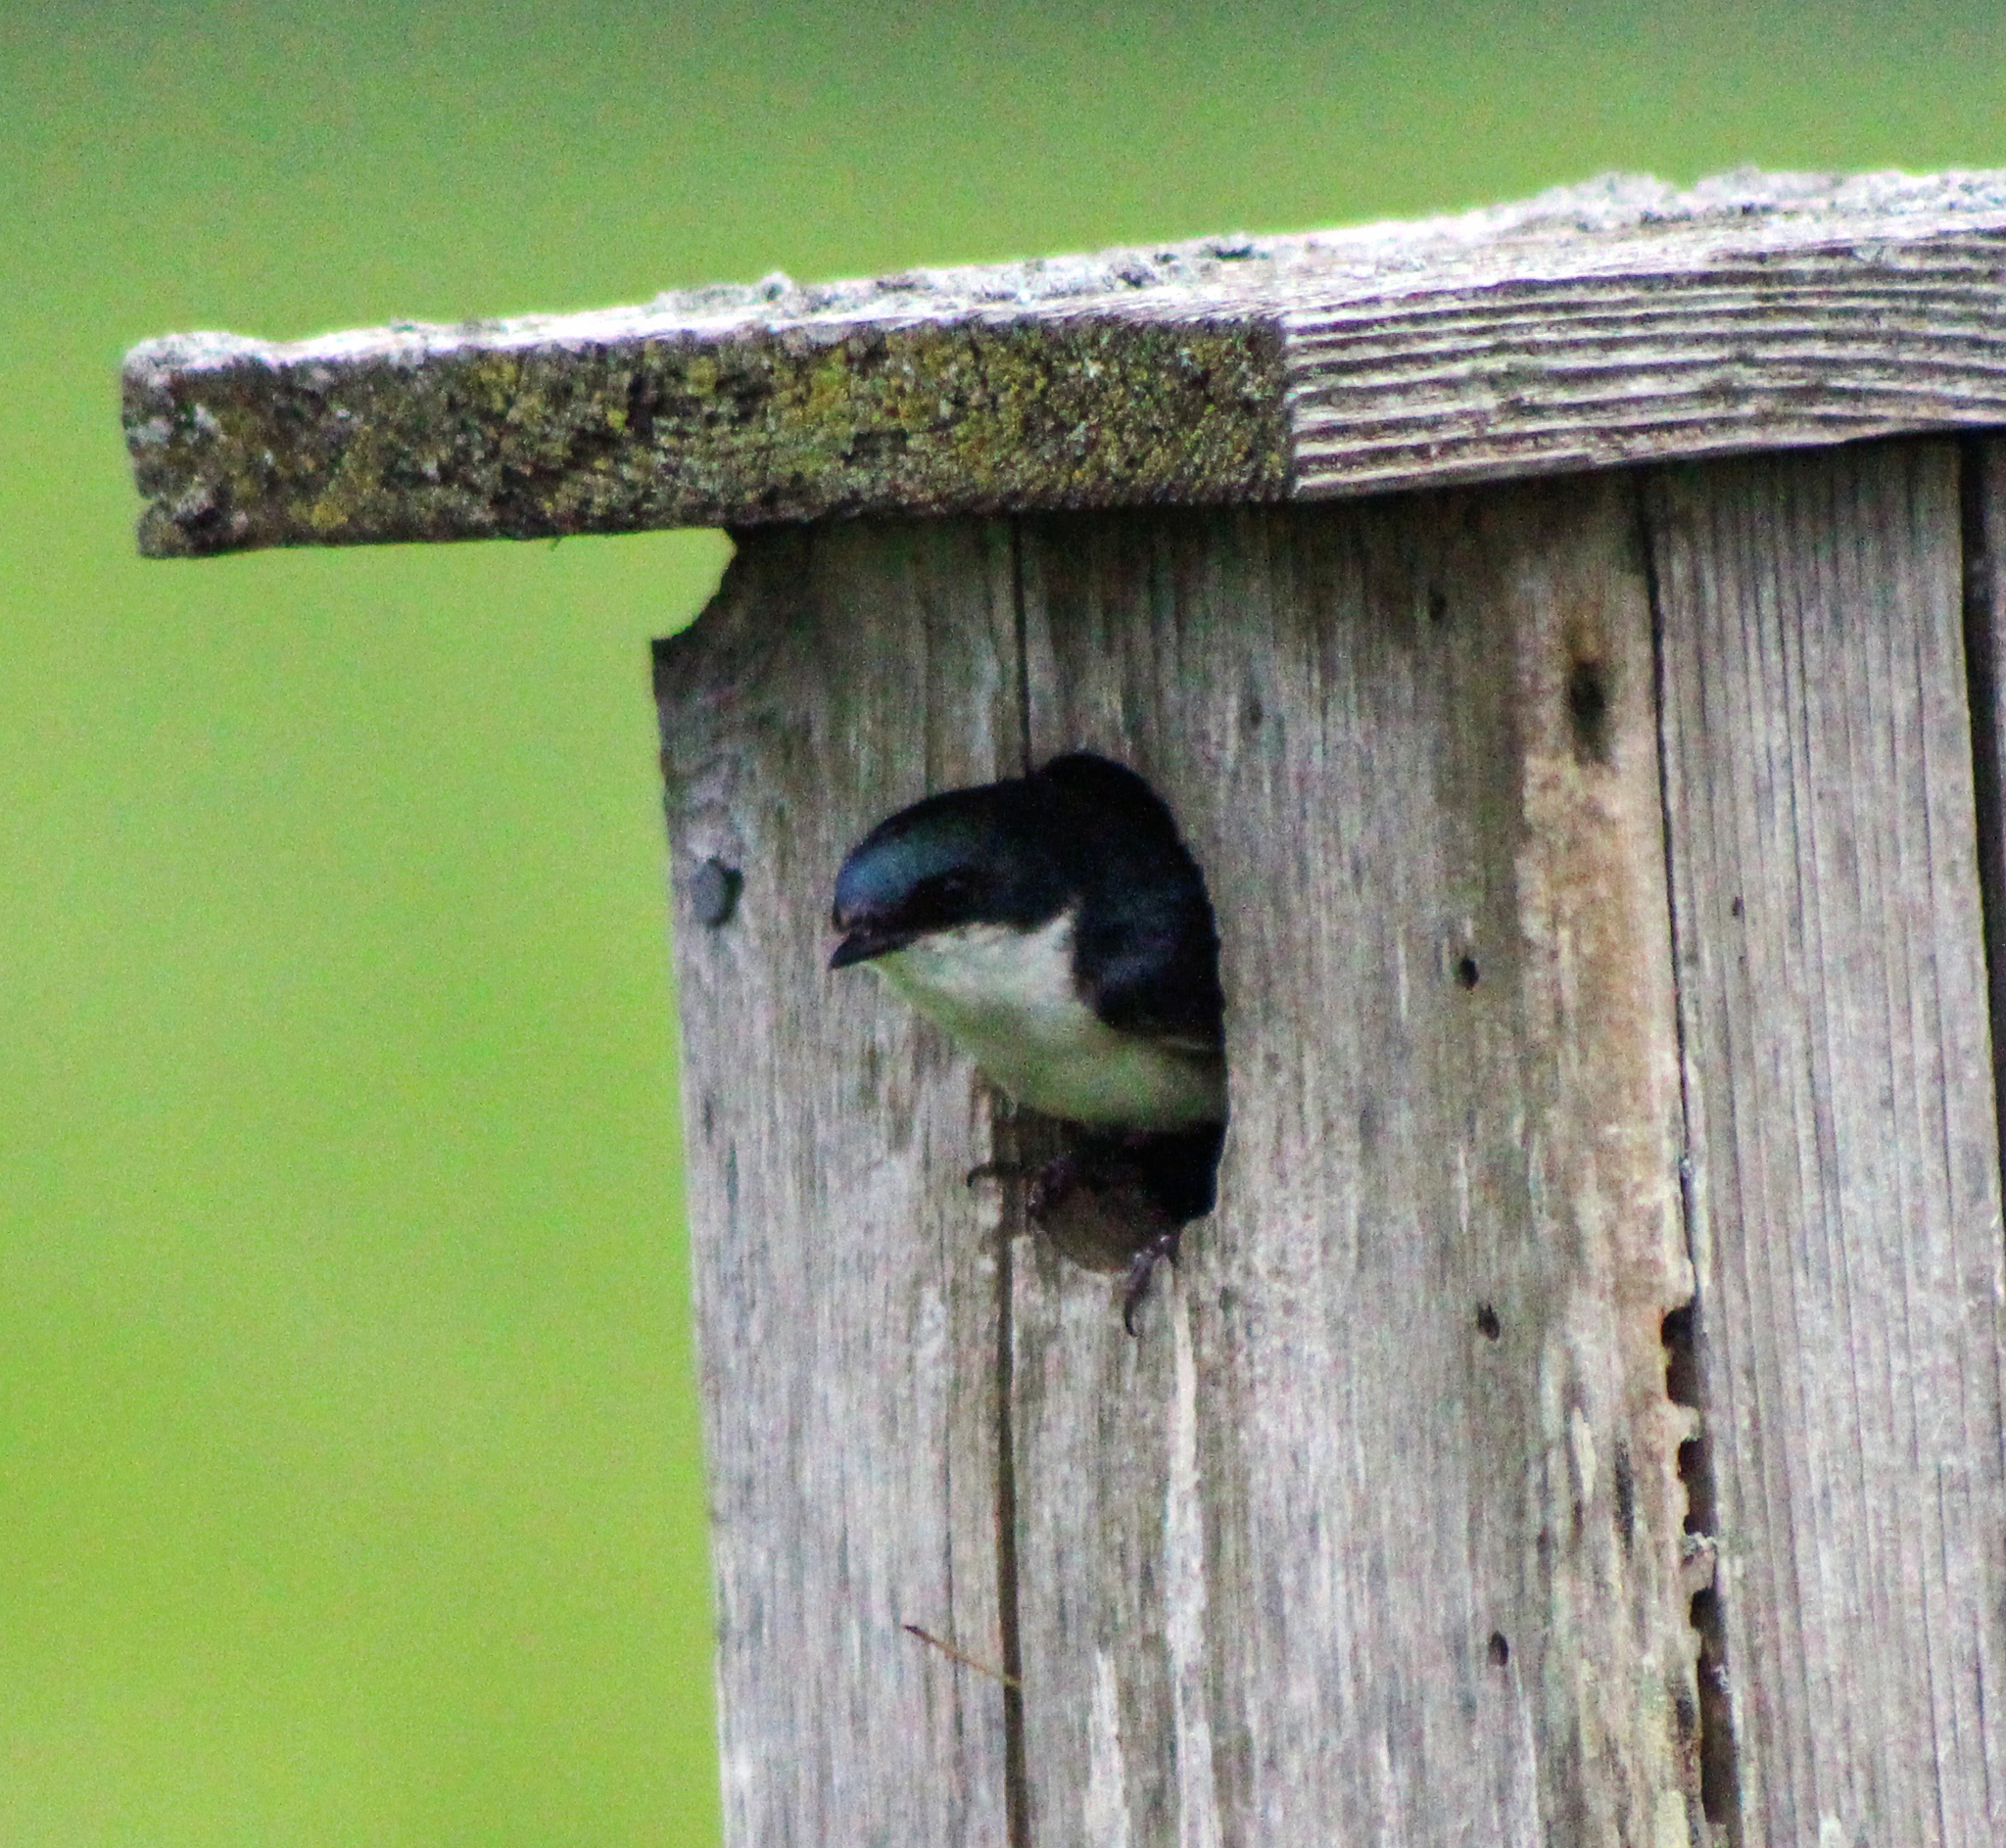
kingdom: Animalia
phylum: Chordata
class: Aves
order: Passeriformes
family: Hirundinidae
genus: Tachycineta
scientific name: Tachycineta bicolor
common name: Tree swallow
